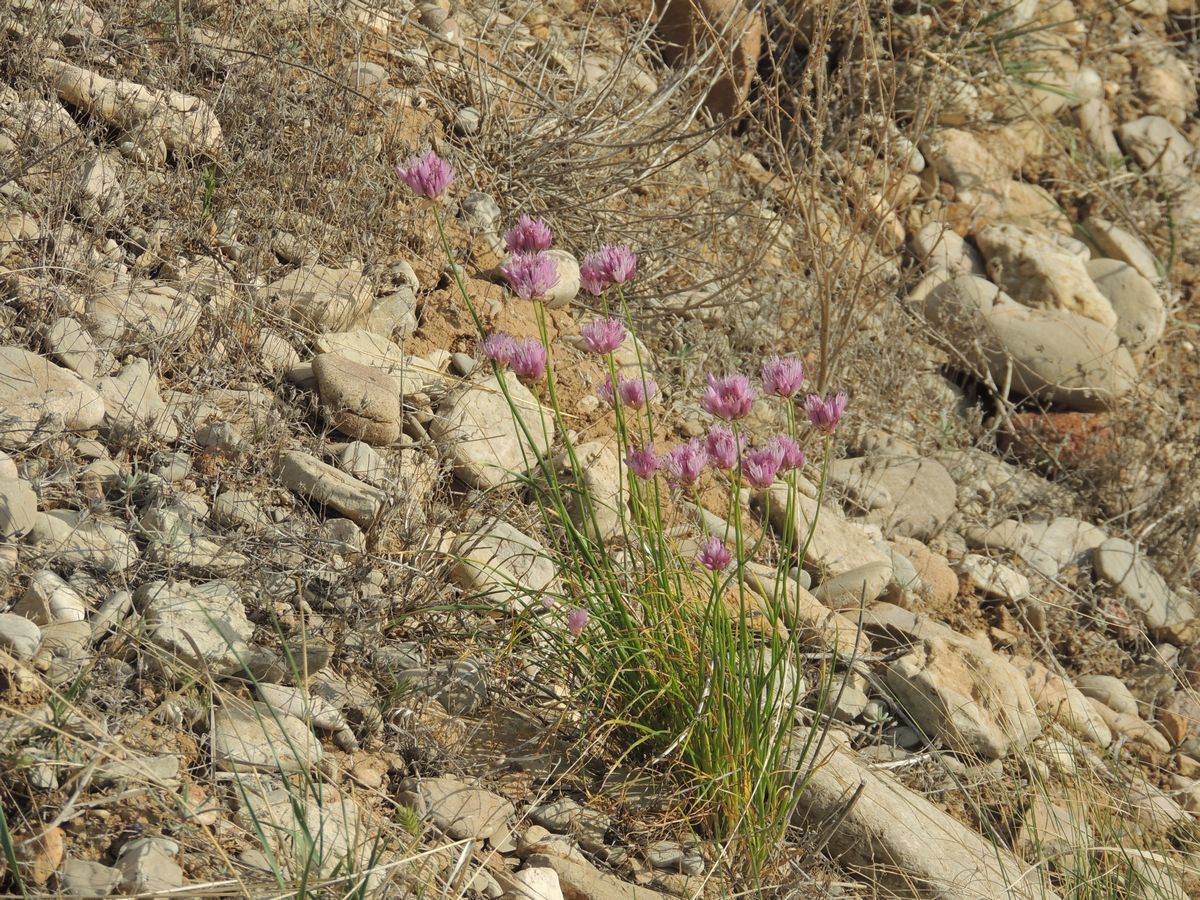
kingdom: Plantae
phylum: Tracheophyta
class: Liliopsida
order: Asparagales
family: Amaryllidaceae
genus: Allium
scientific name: Allium inderiense
